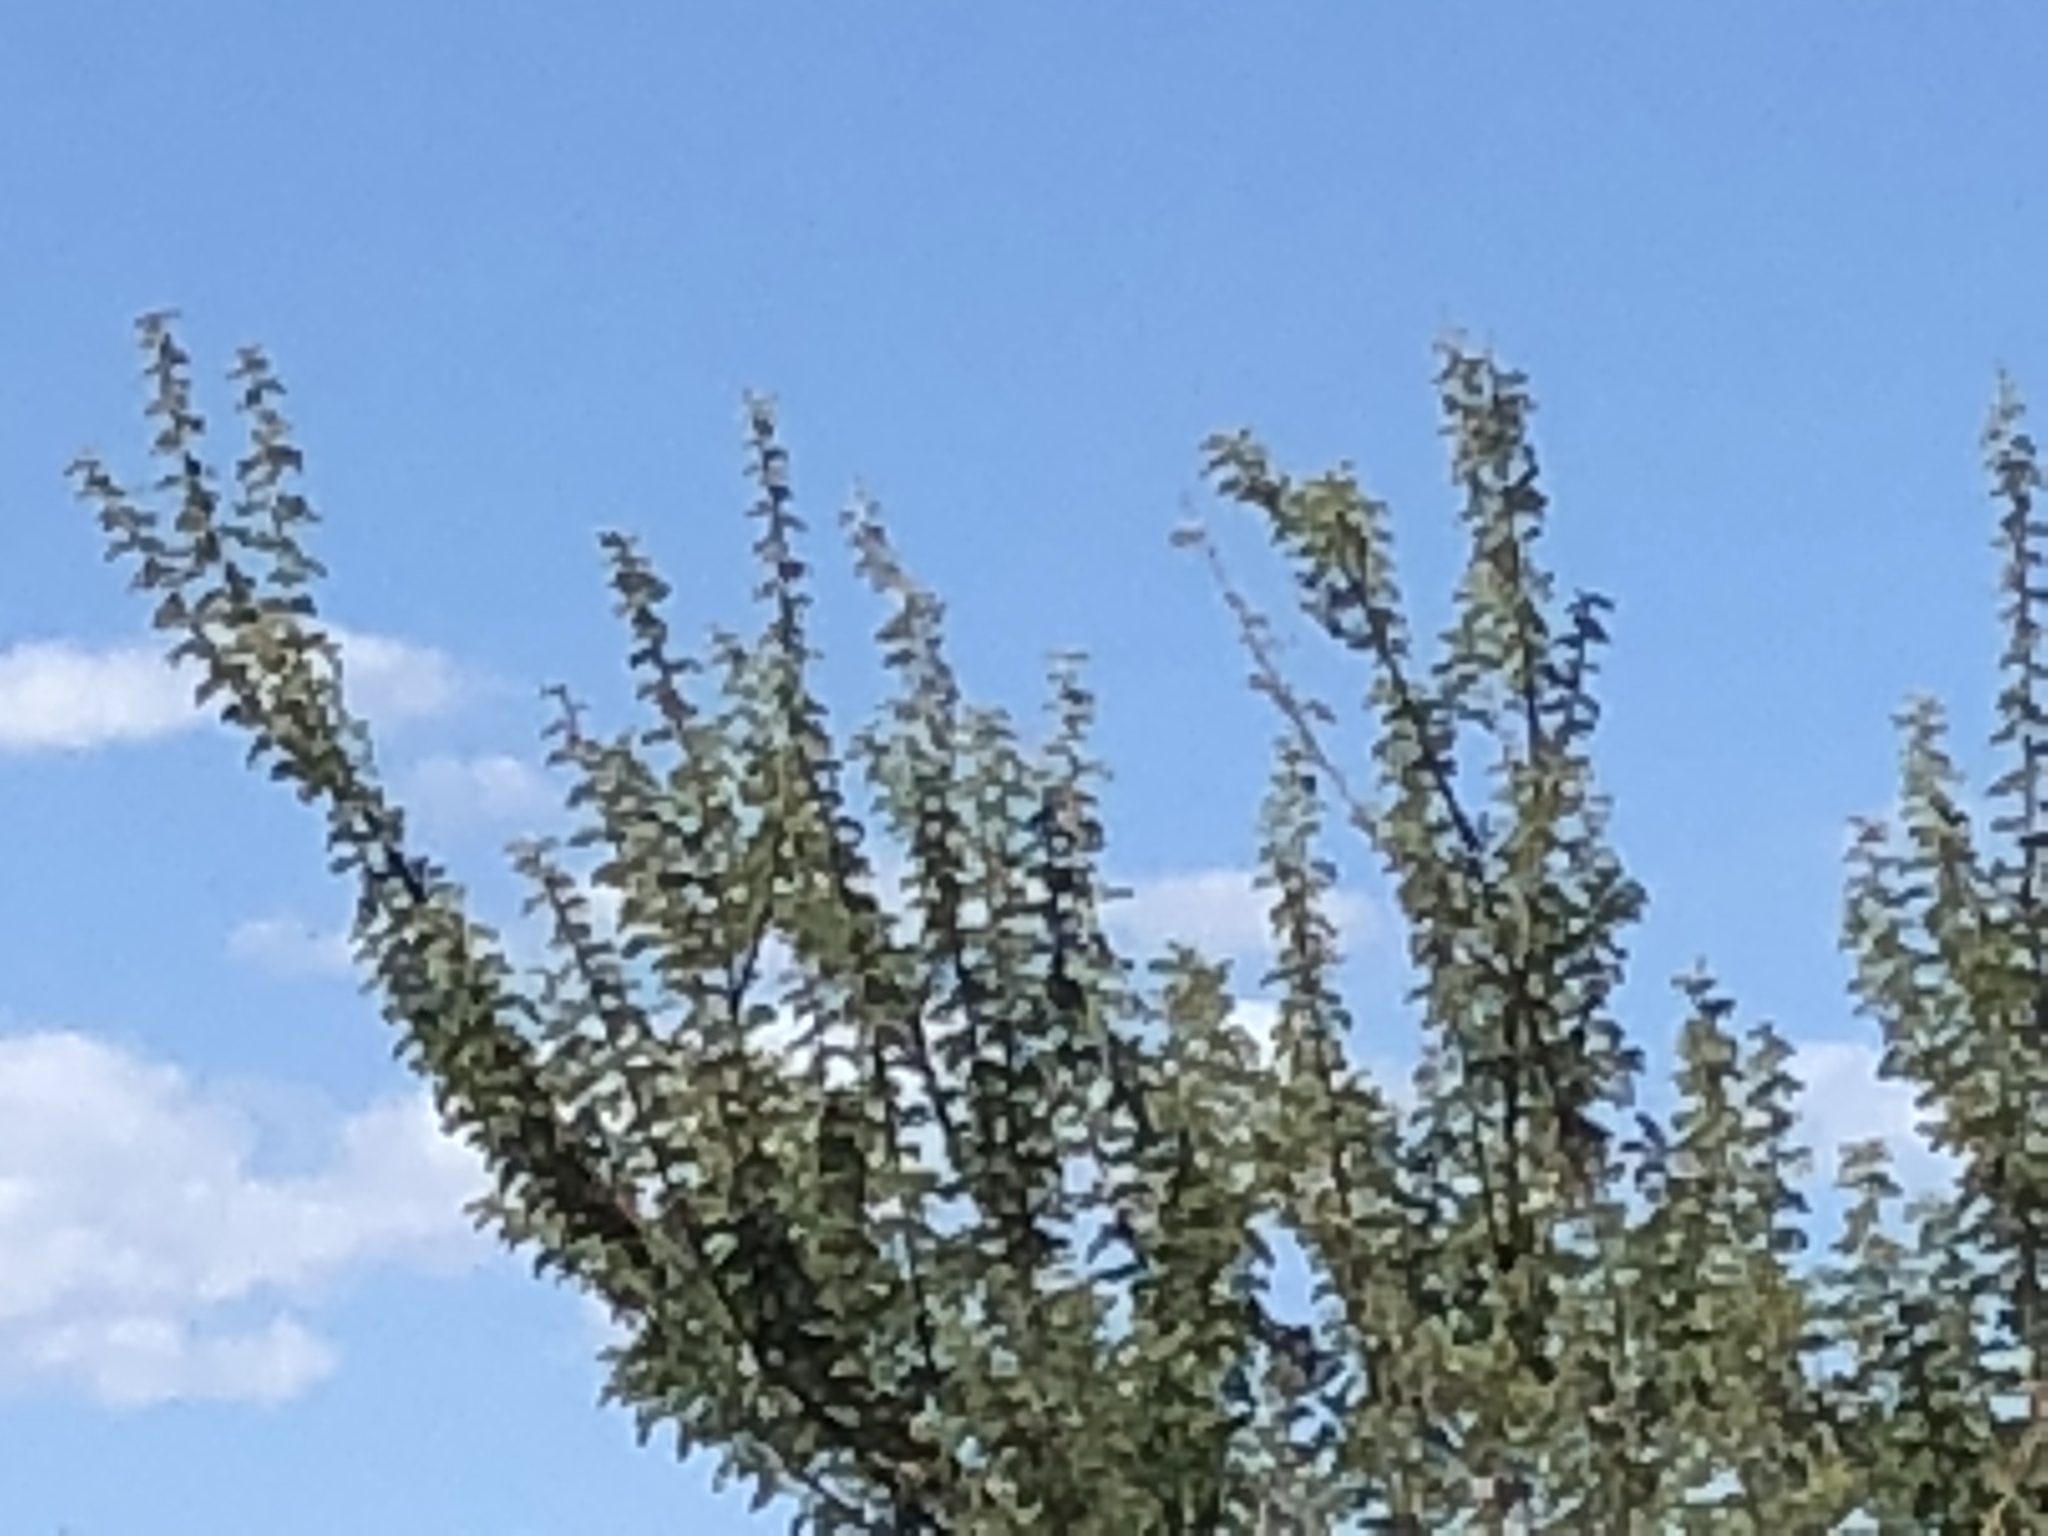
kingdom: Plantae
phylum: Tracheophyta
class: Magnoliopsida
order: Fabales
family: Fabaceae
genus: Senegalia
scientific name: Senegalia greggii
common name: Texas-mimosa
